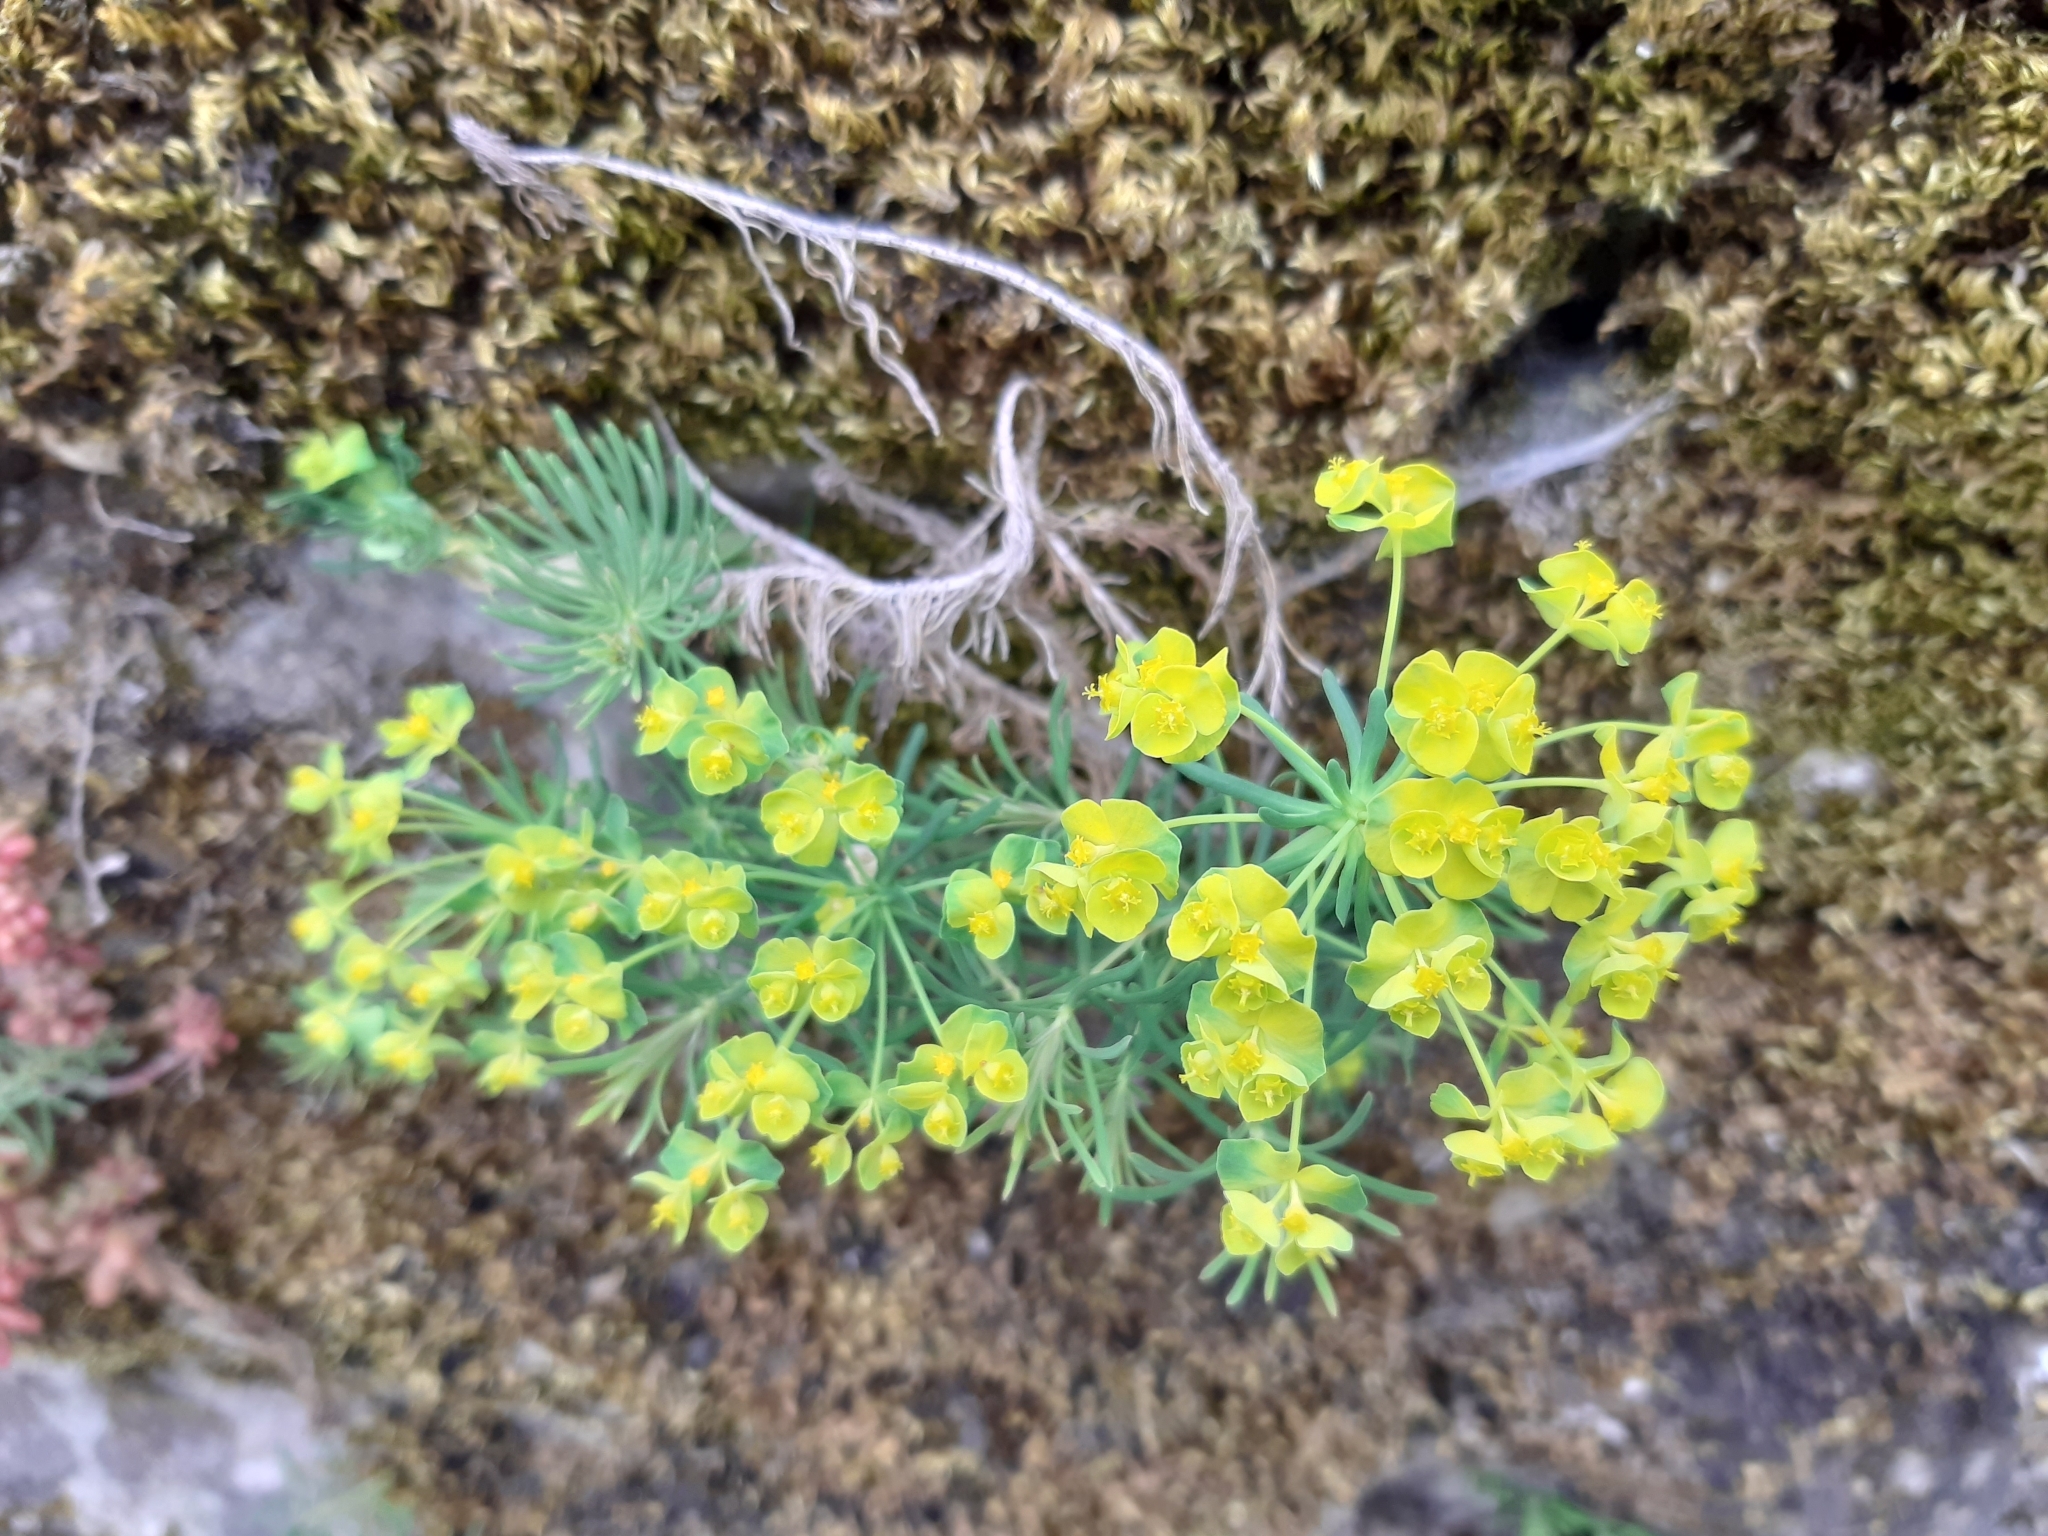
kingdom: Plantae
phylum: Tracheophyta
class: Magnoliopsida
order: Malpighiales
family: Euphorbiaceae
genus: Euphorbia
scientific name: Euphorbia cyparissias
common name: Cypress spurge
